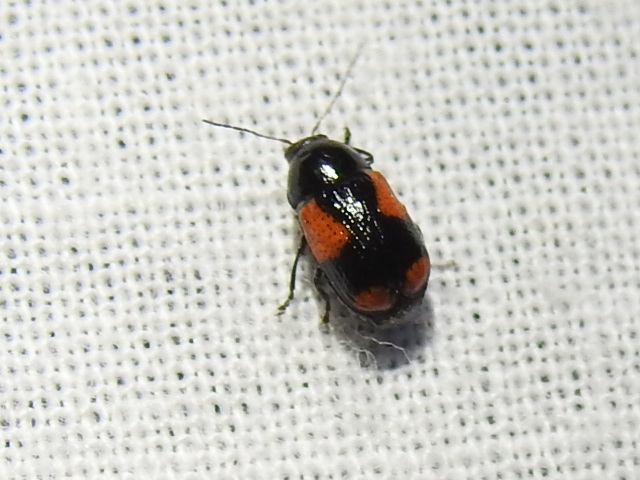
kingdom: Animalia
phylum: Arthropoda
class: Insecta
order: Coleoptera
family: Chrysomelidae
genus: Cryptocephalus
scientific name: Cryptocephalus quadruplex
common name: Black and red sumac leaf beetle
